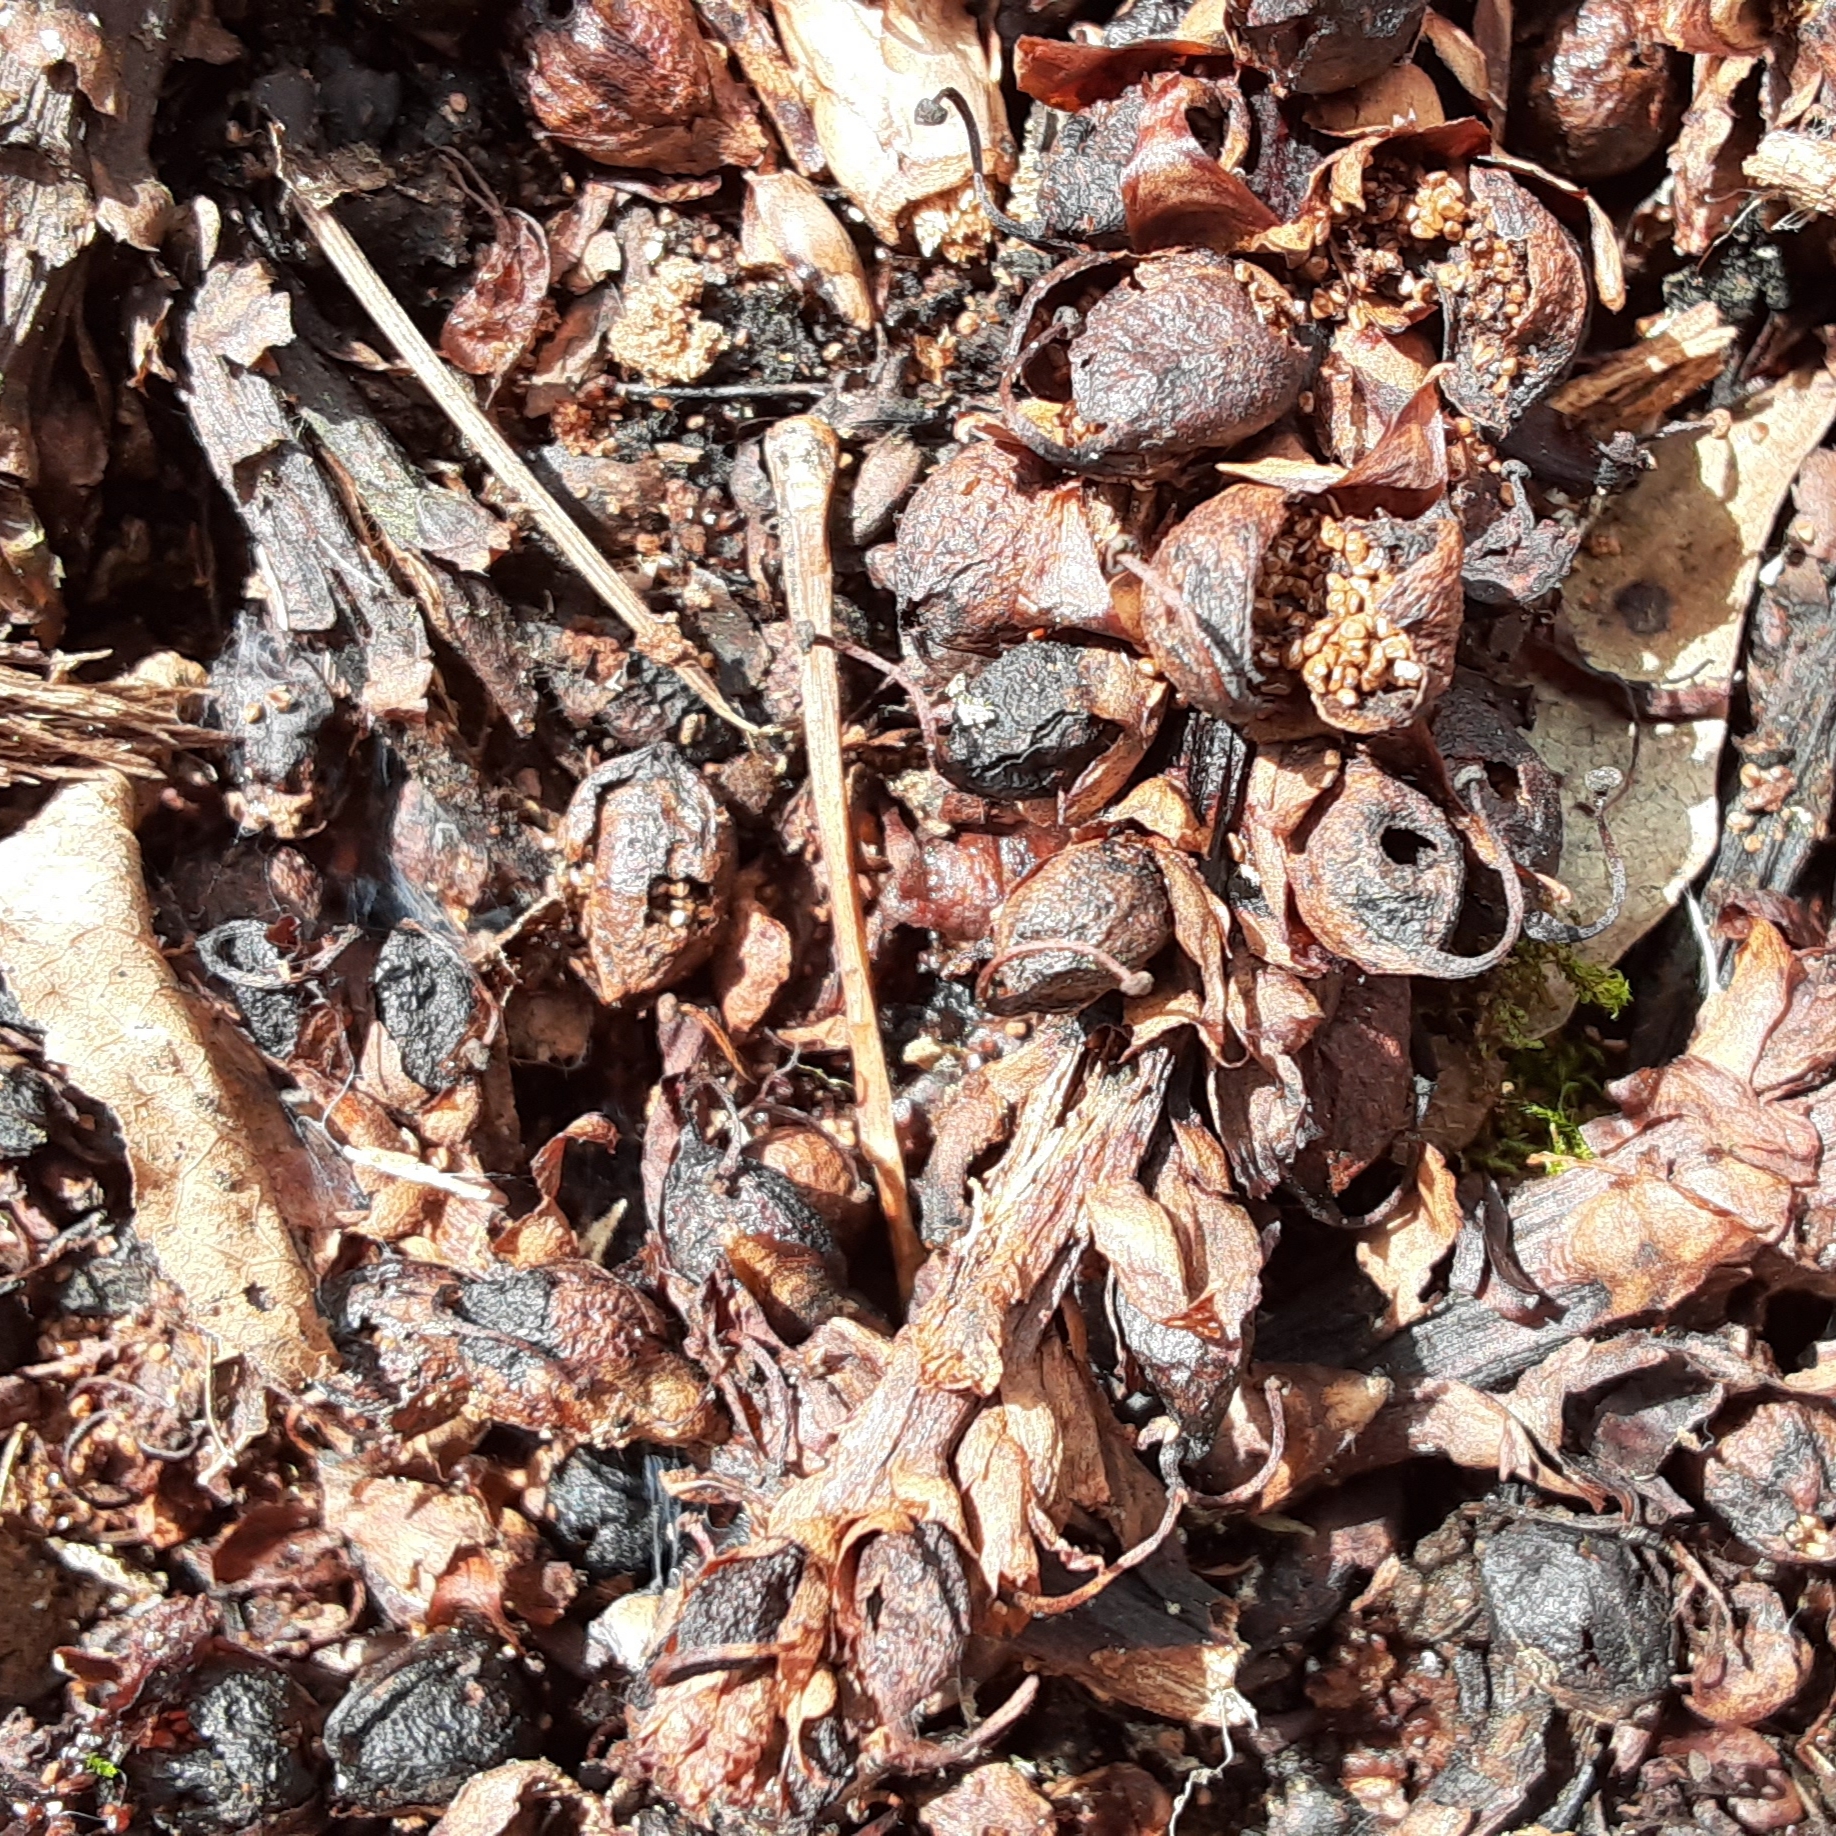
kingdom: Plantae
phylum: Tracheophyta
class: Magnoliopsida
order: Lamiales
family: Orobanchaceae
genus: Conopholis
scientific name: Conopholis americana
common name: American cancer-root
